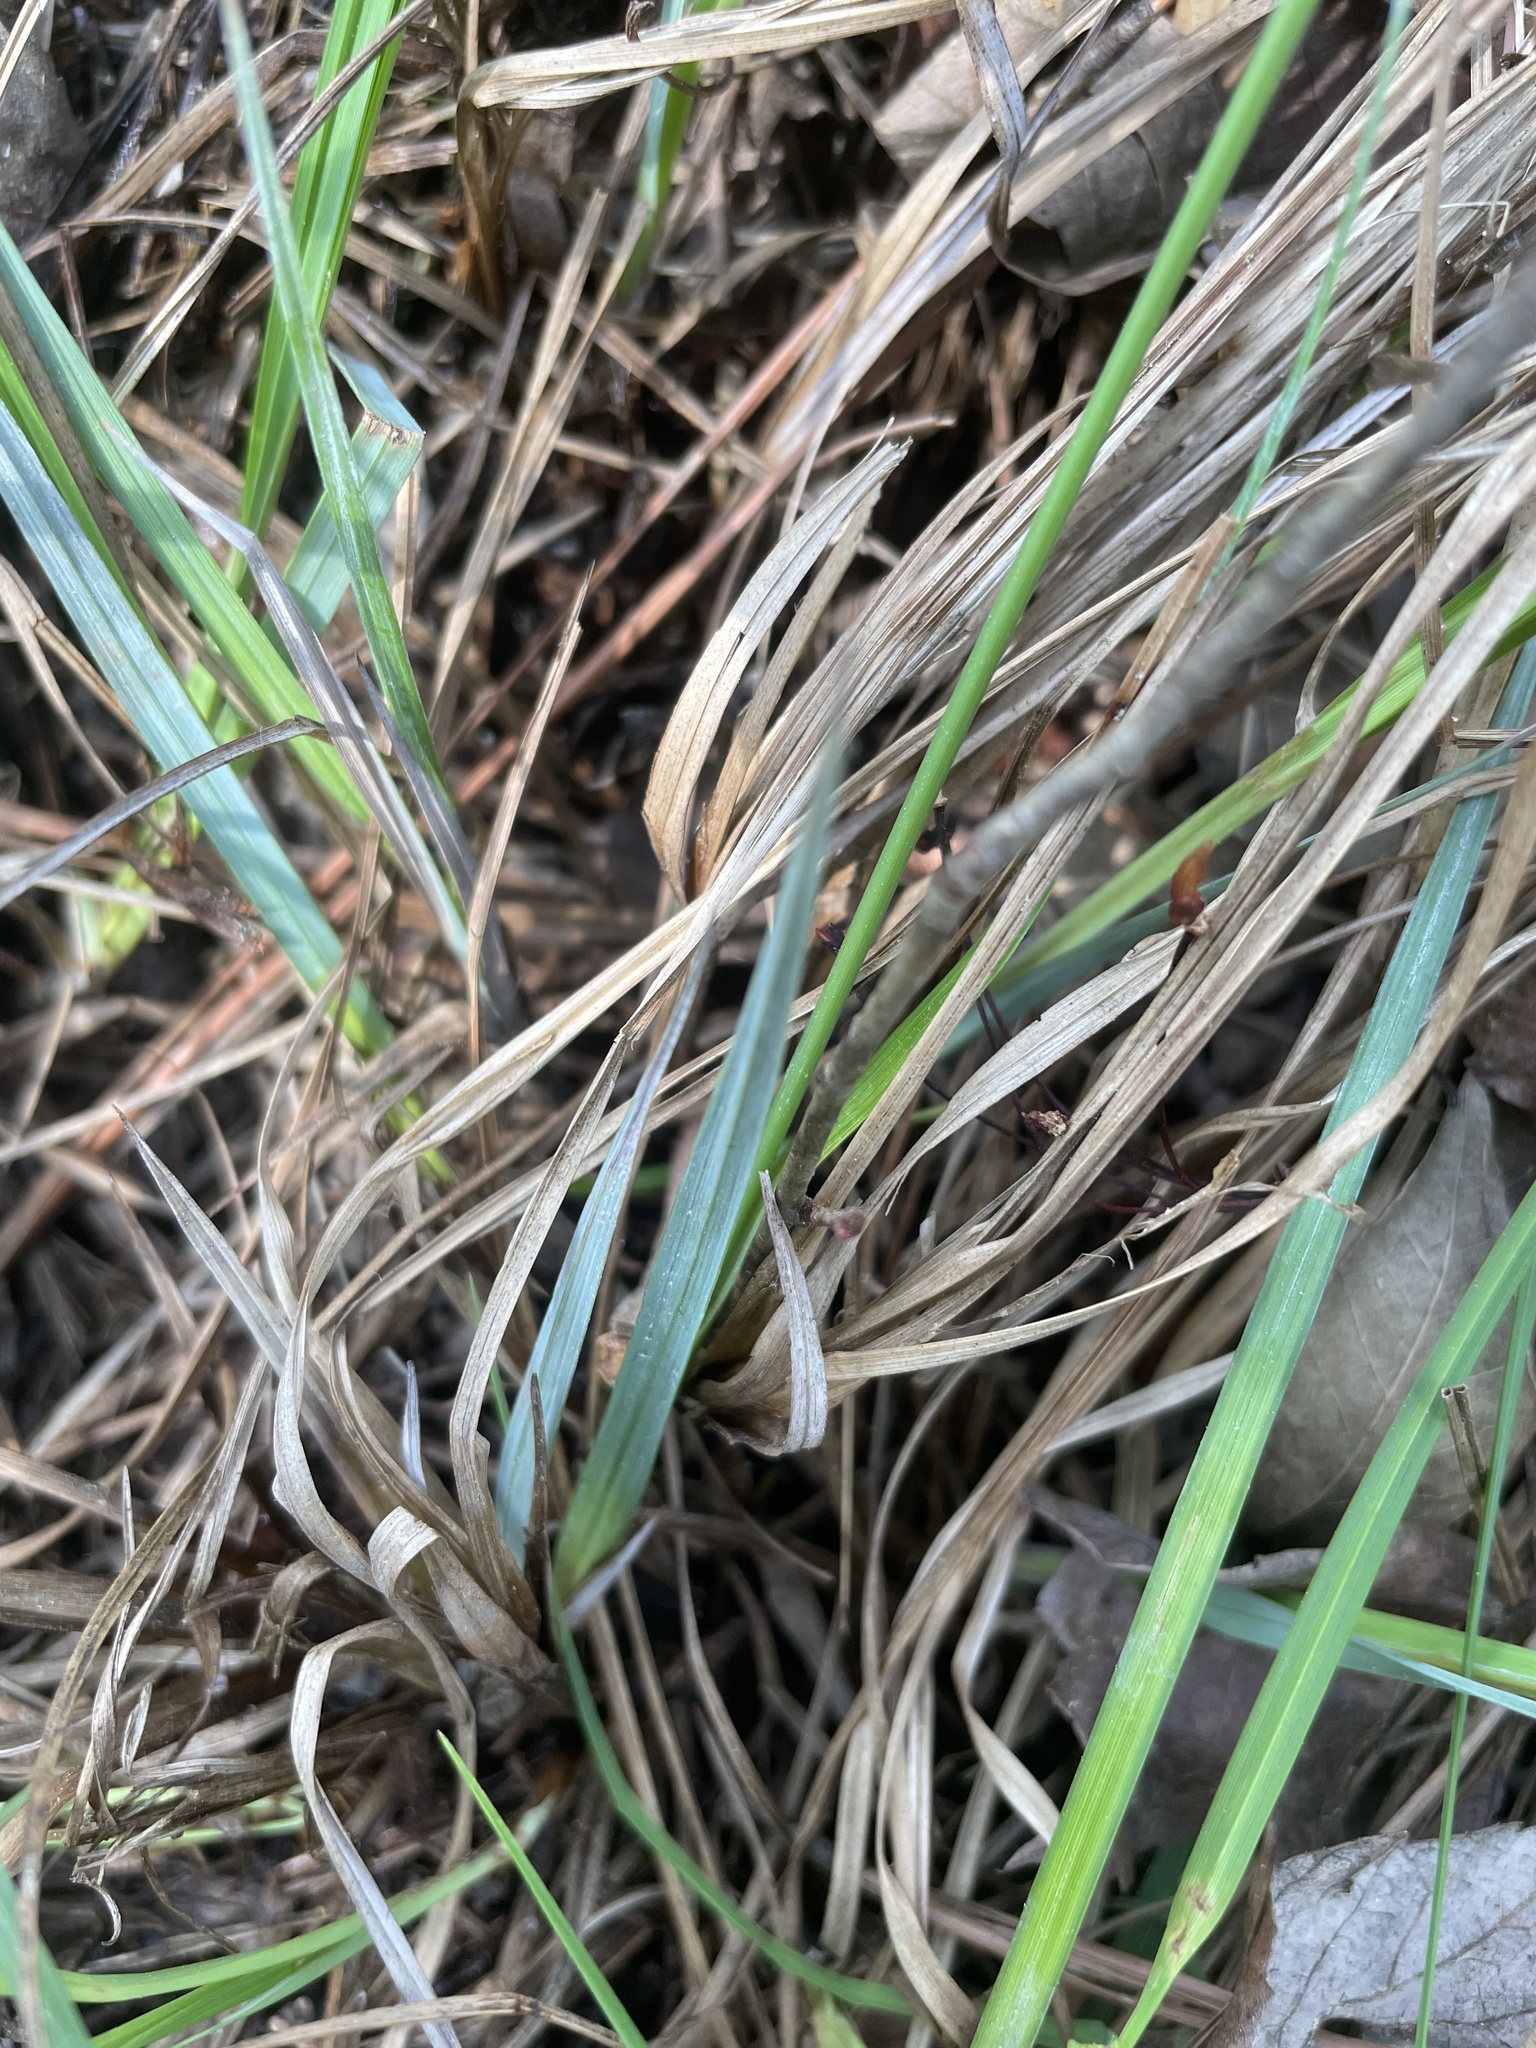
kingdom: Plantae
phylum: Tracheophyta
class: Liliopsida
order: Poales
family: Cyperaceae
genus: Carex
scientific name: Carex barrattii
